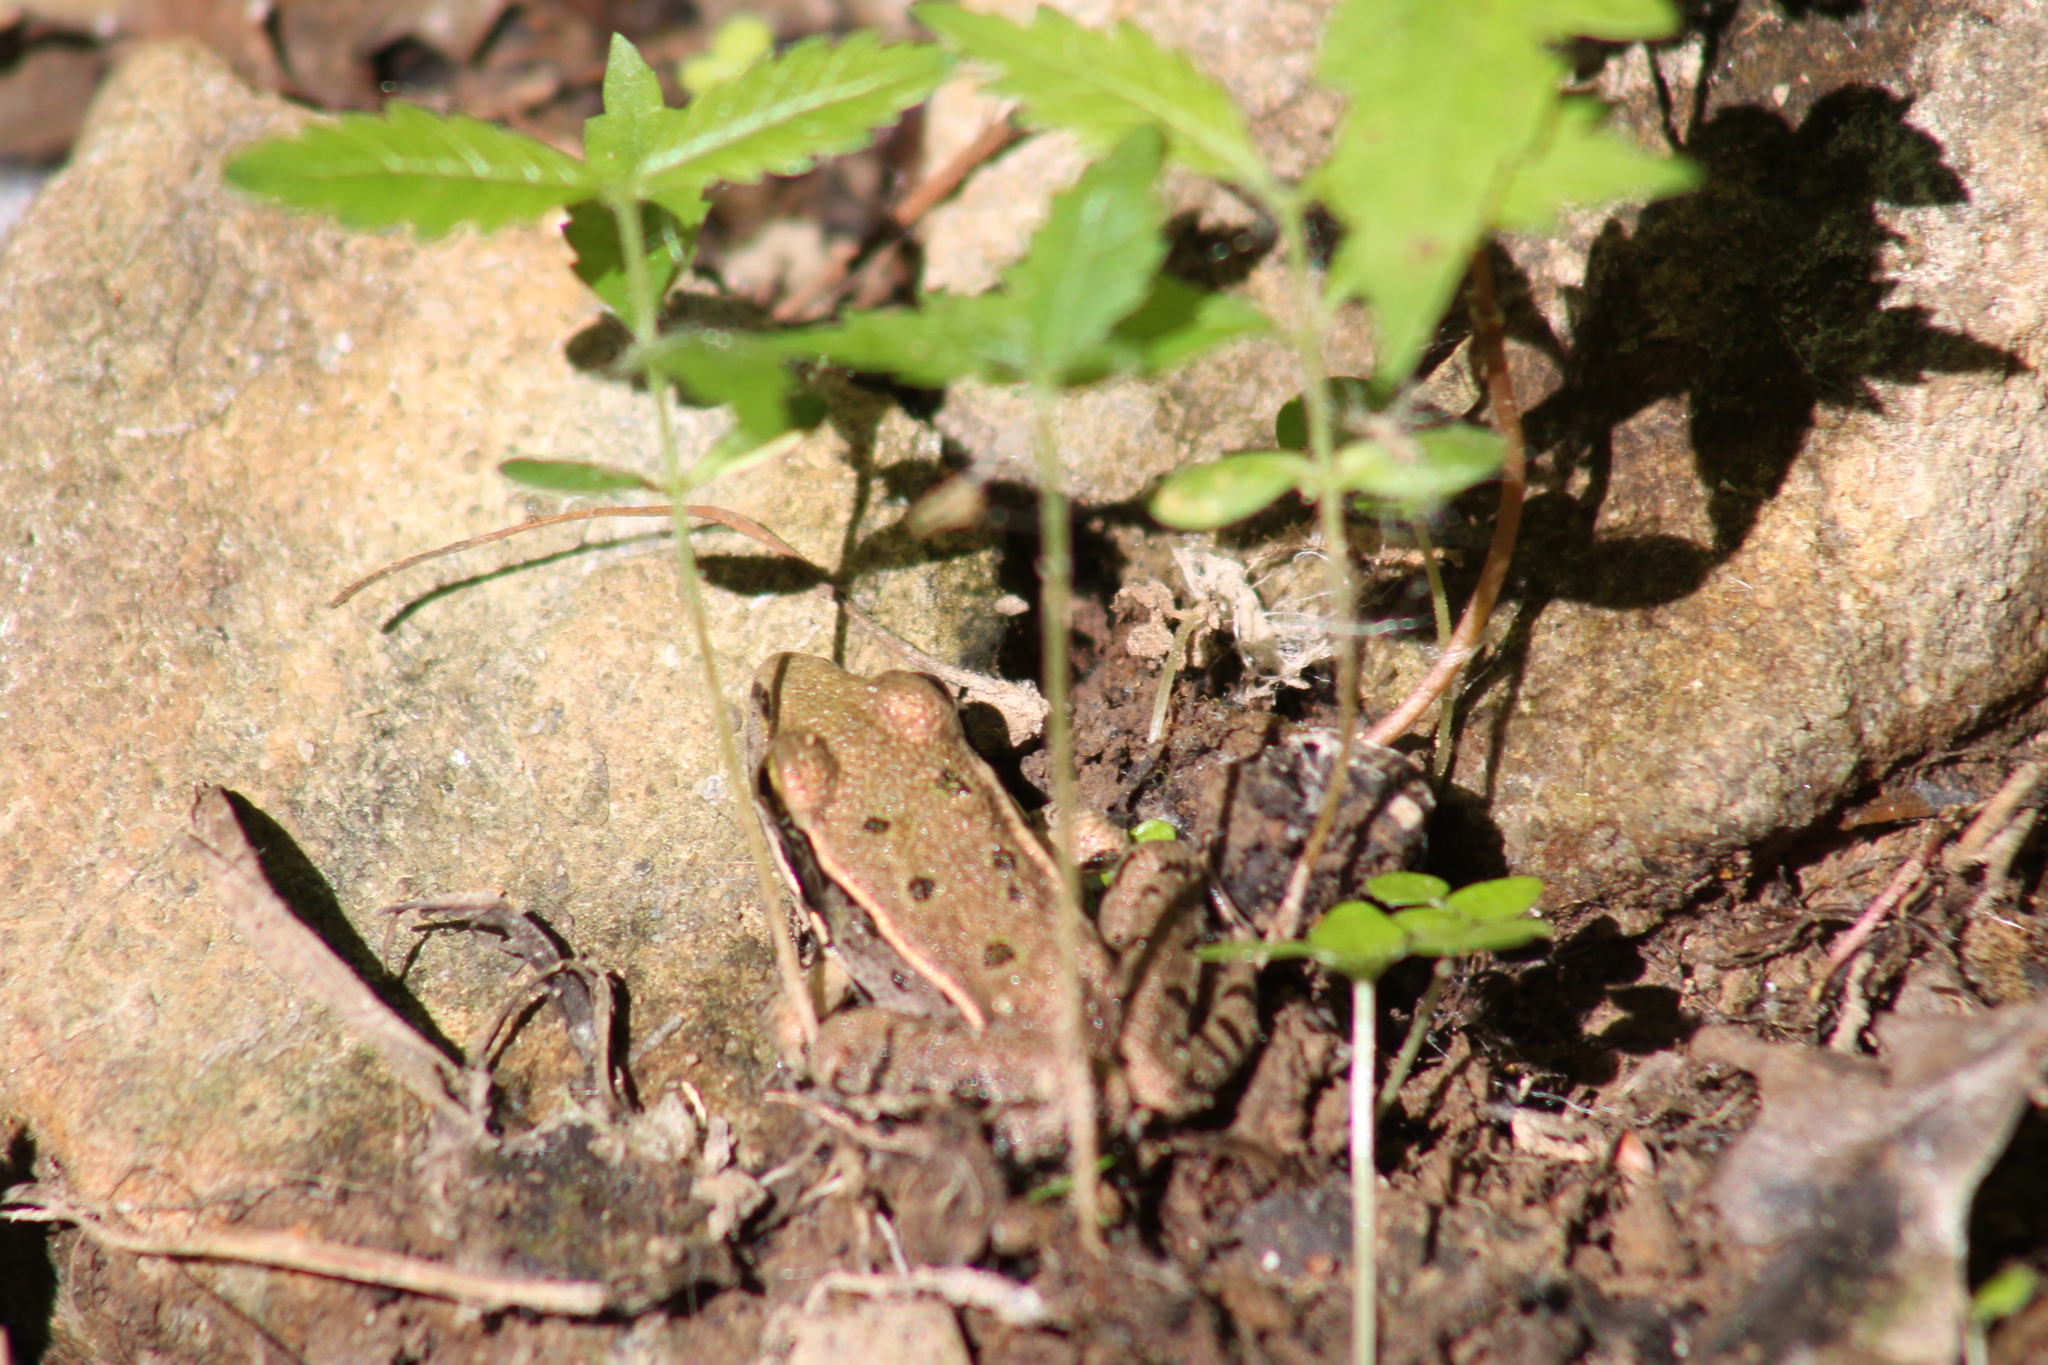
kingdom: Animalia
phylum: Chordata
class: Amphibia
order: Anura
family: Ranidae
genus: Lithobates
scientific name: Lithobates sphenocephalus
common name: Southern leopard frog
